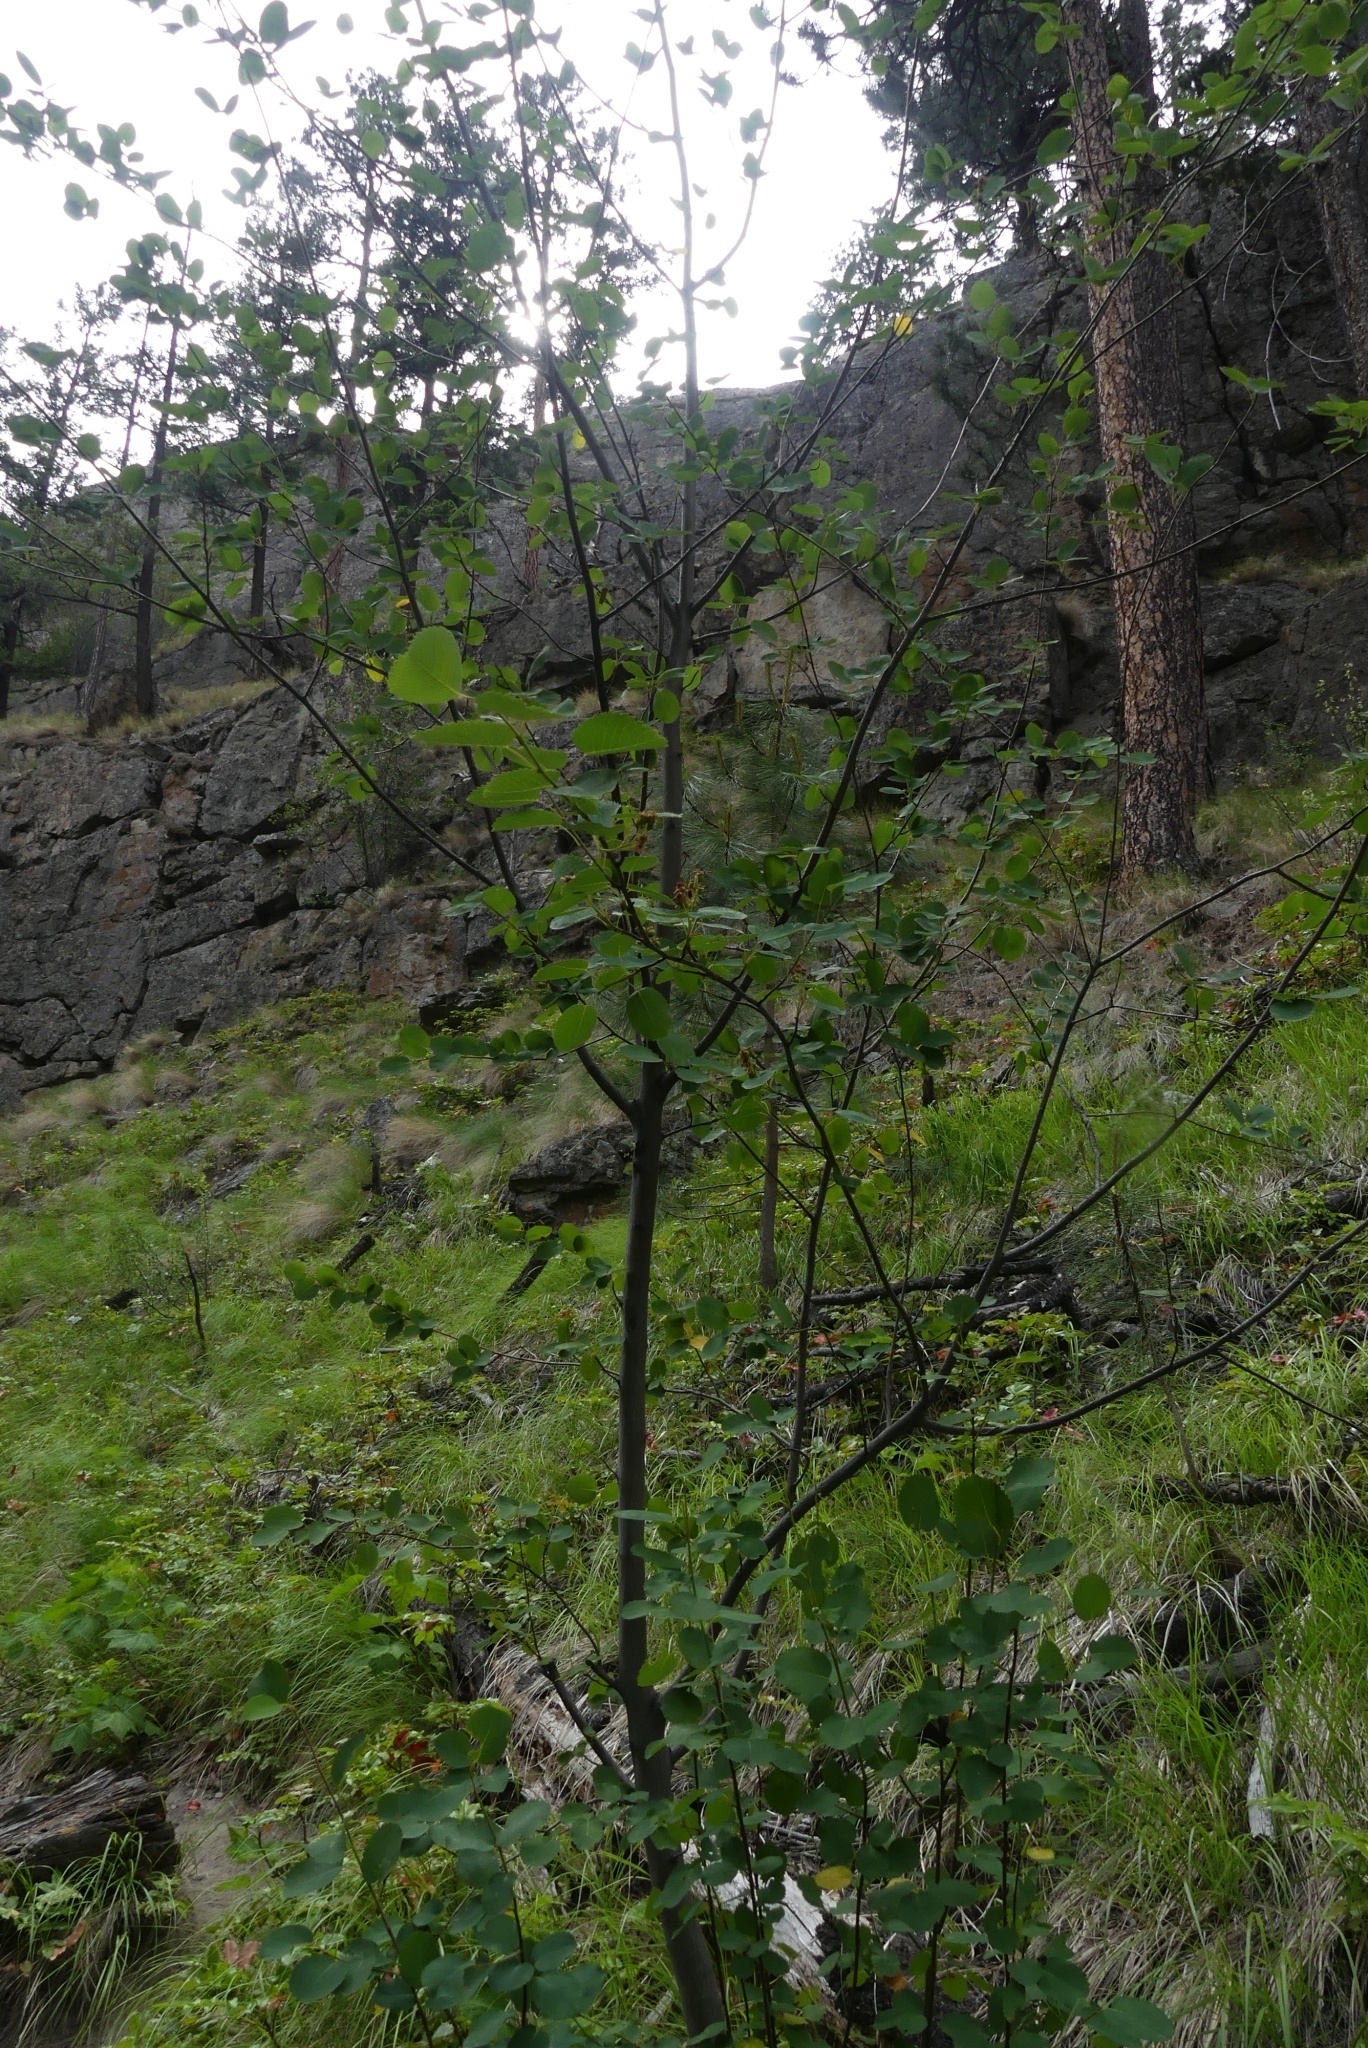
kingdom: Plantae
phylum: Tracheophyta
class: Magnoliopsida
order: Rosales
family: Rosaceae
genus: Amelanchier
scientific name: Amelanchier alnifolia
